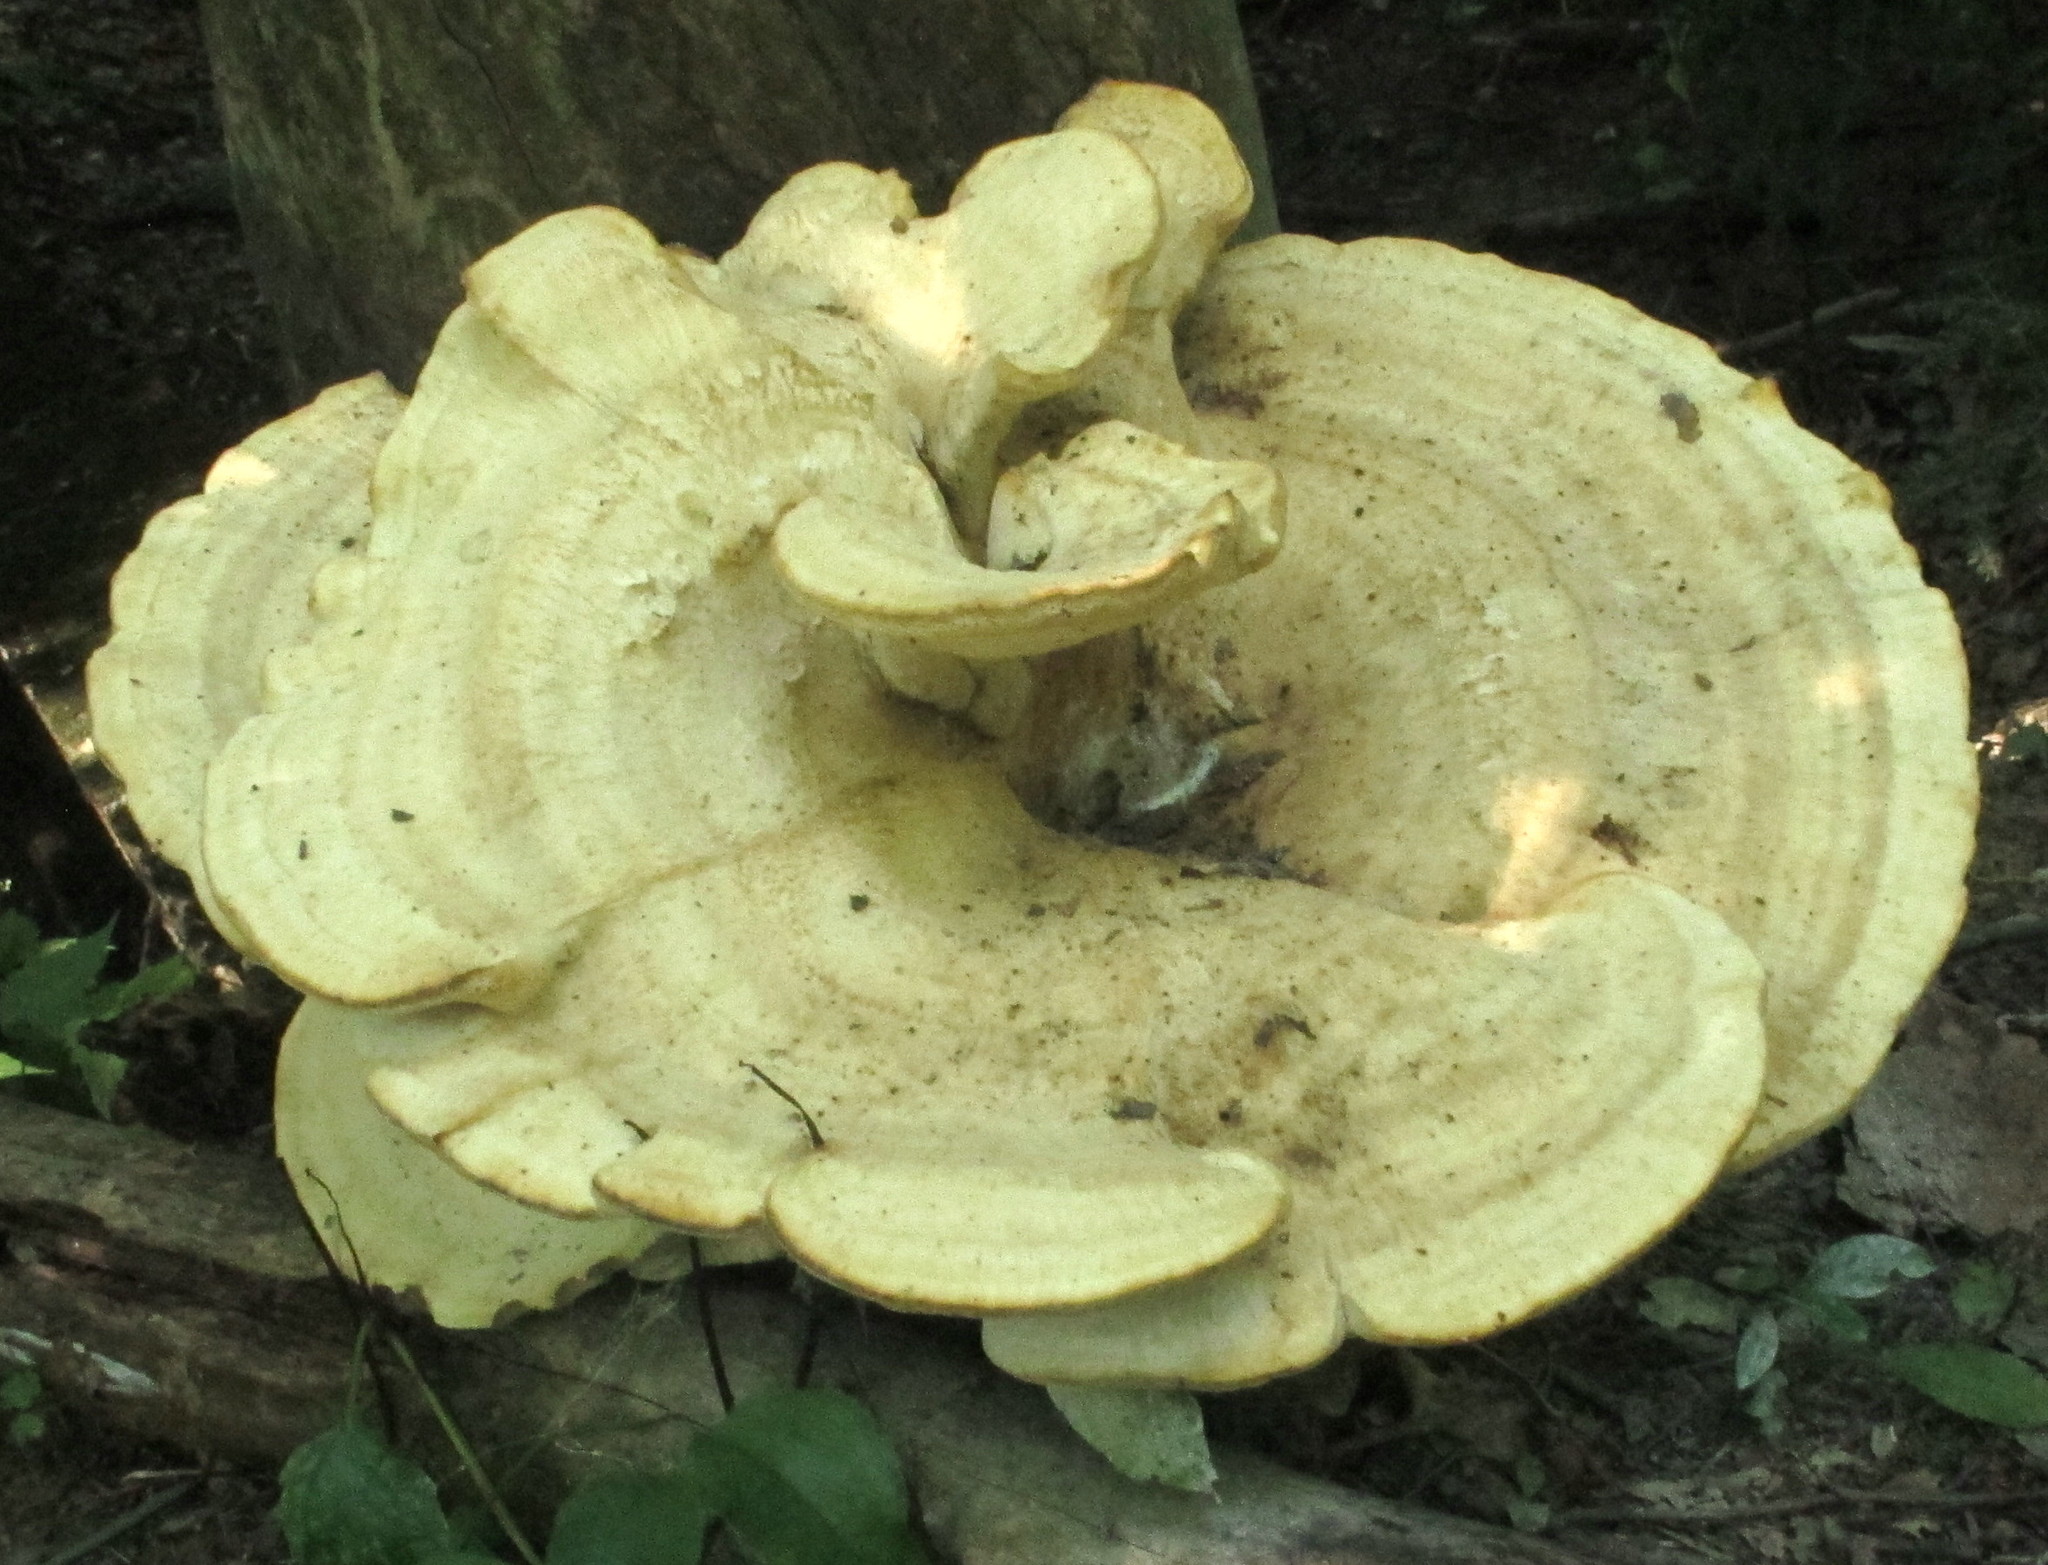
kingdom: Fungi
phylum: Basidiomycota
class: Agaricomycetes
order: Russulales
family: Bondarzewiaceae
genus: Bondarzewia
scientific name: Bondarzewia berkeleyi
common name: Berkeley's polypore
